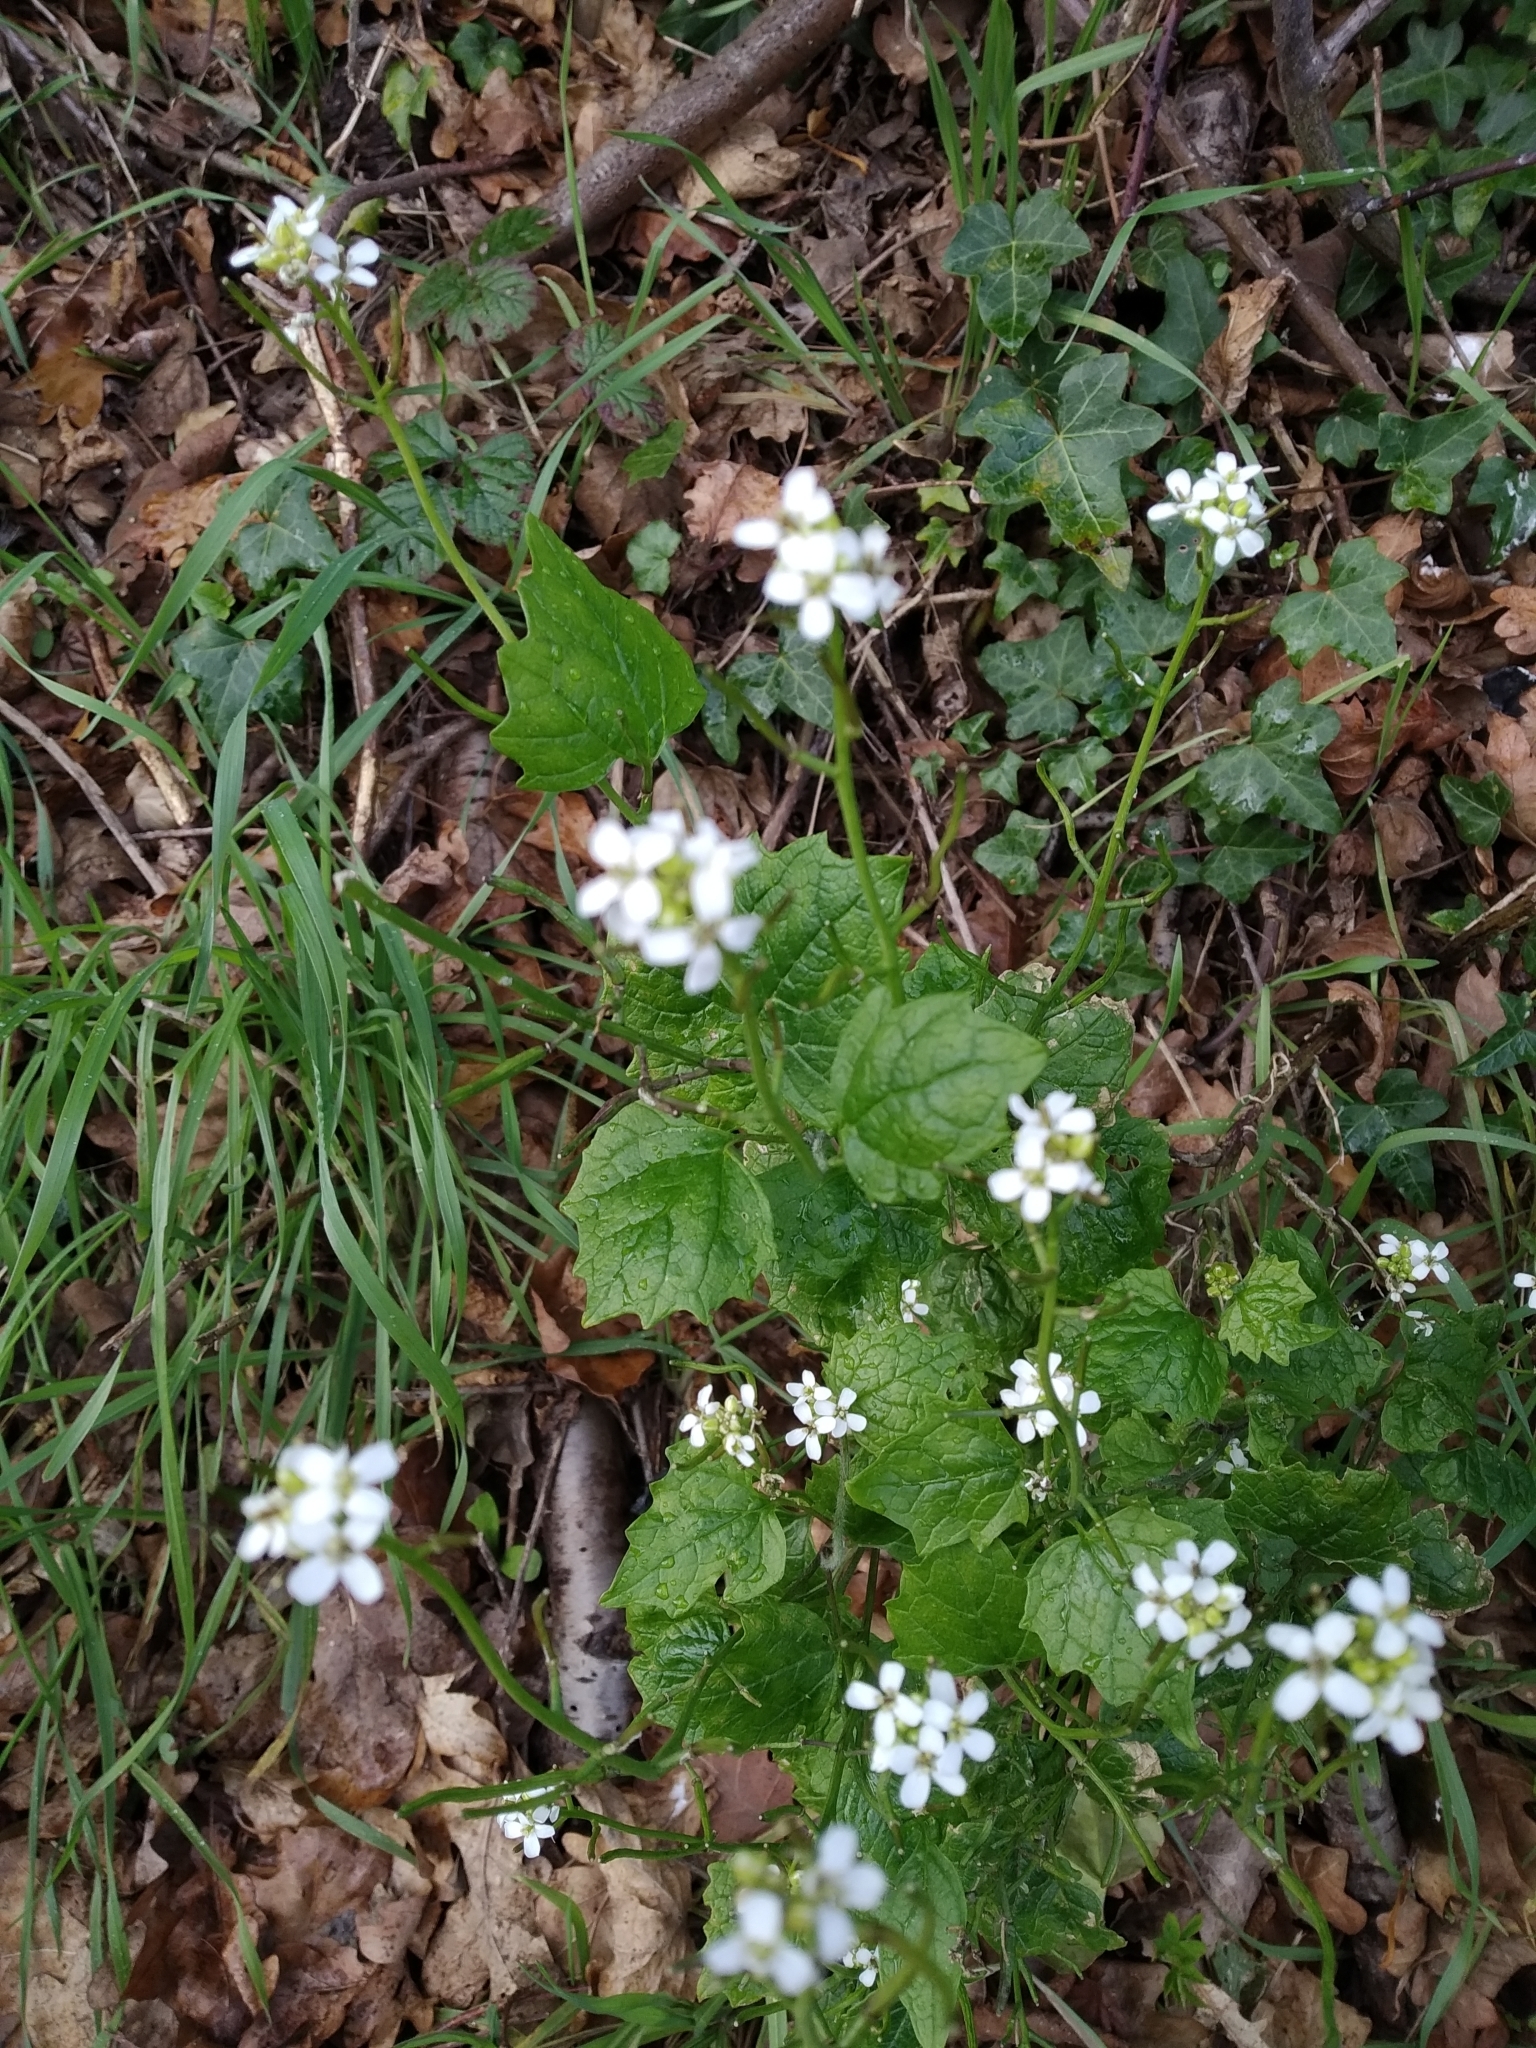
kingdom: Plantae
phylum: Tracheophyta
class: Magnoliopsida
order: Brassicales
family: Brassicaceae
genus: Alliaria
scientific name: Alliaria petiolata
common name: Garlic mustard
